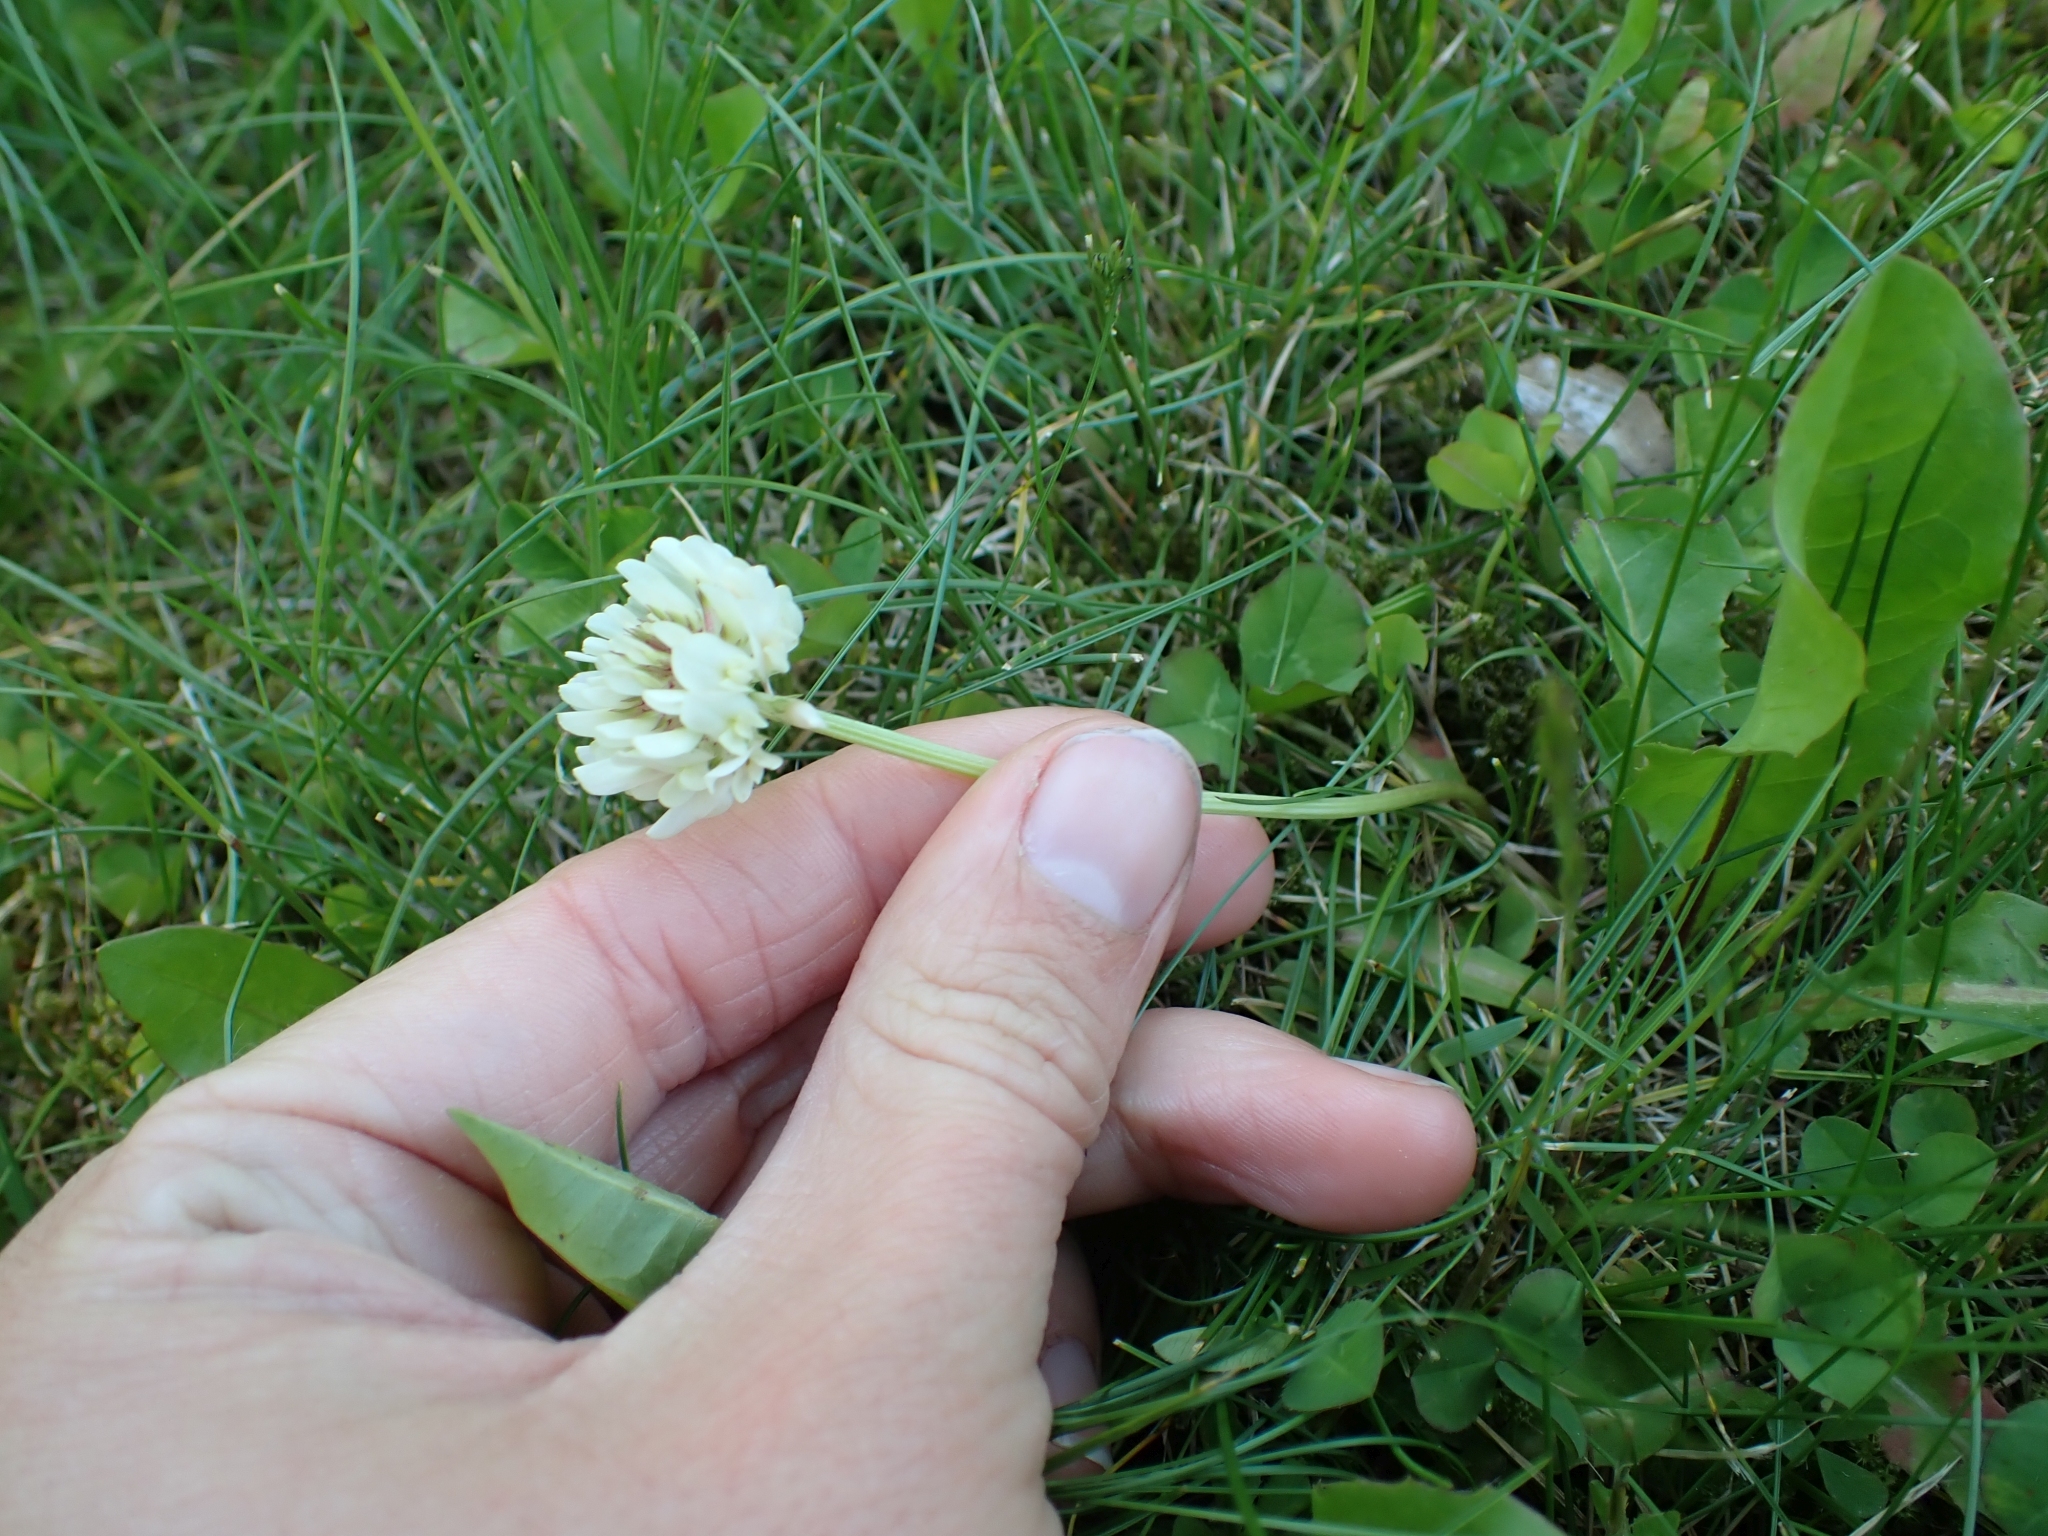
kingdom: Plantae
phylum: Tracheophyta
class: Magnoliopsida
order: Fabales
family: Fabaceae
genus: Trifolium
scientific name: Trifolium repens
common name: White clover
